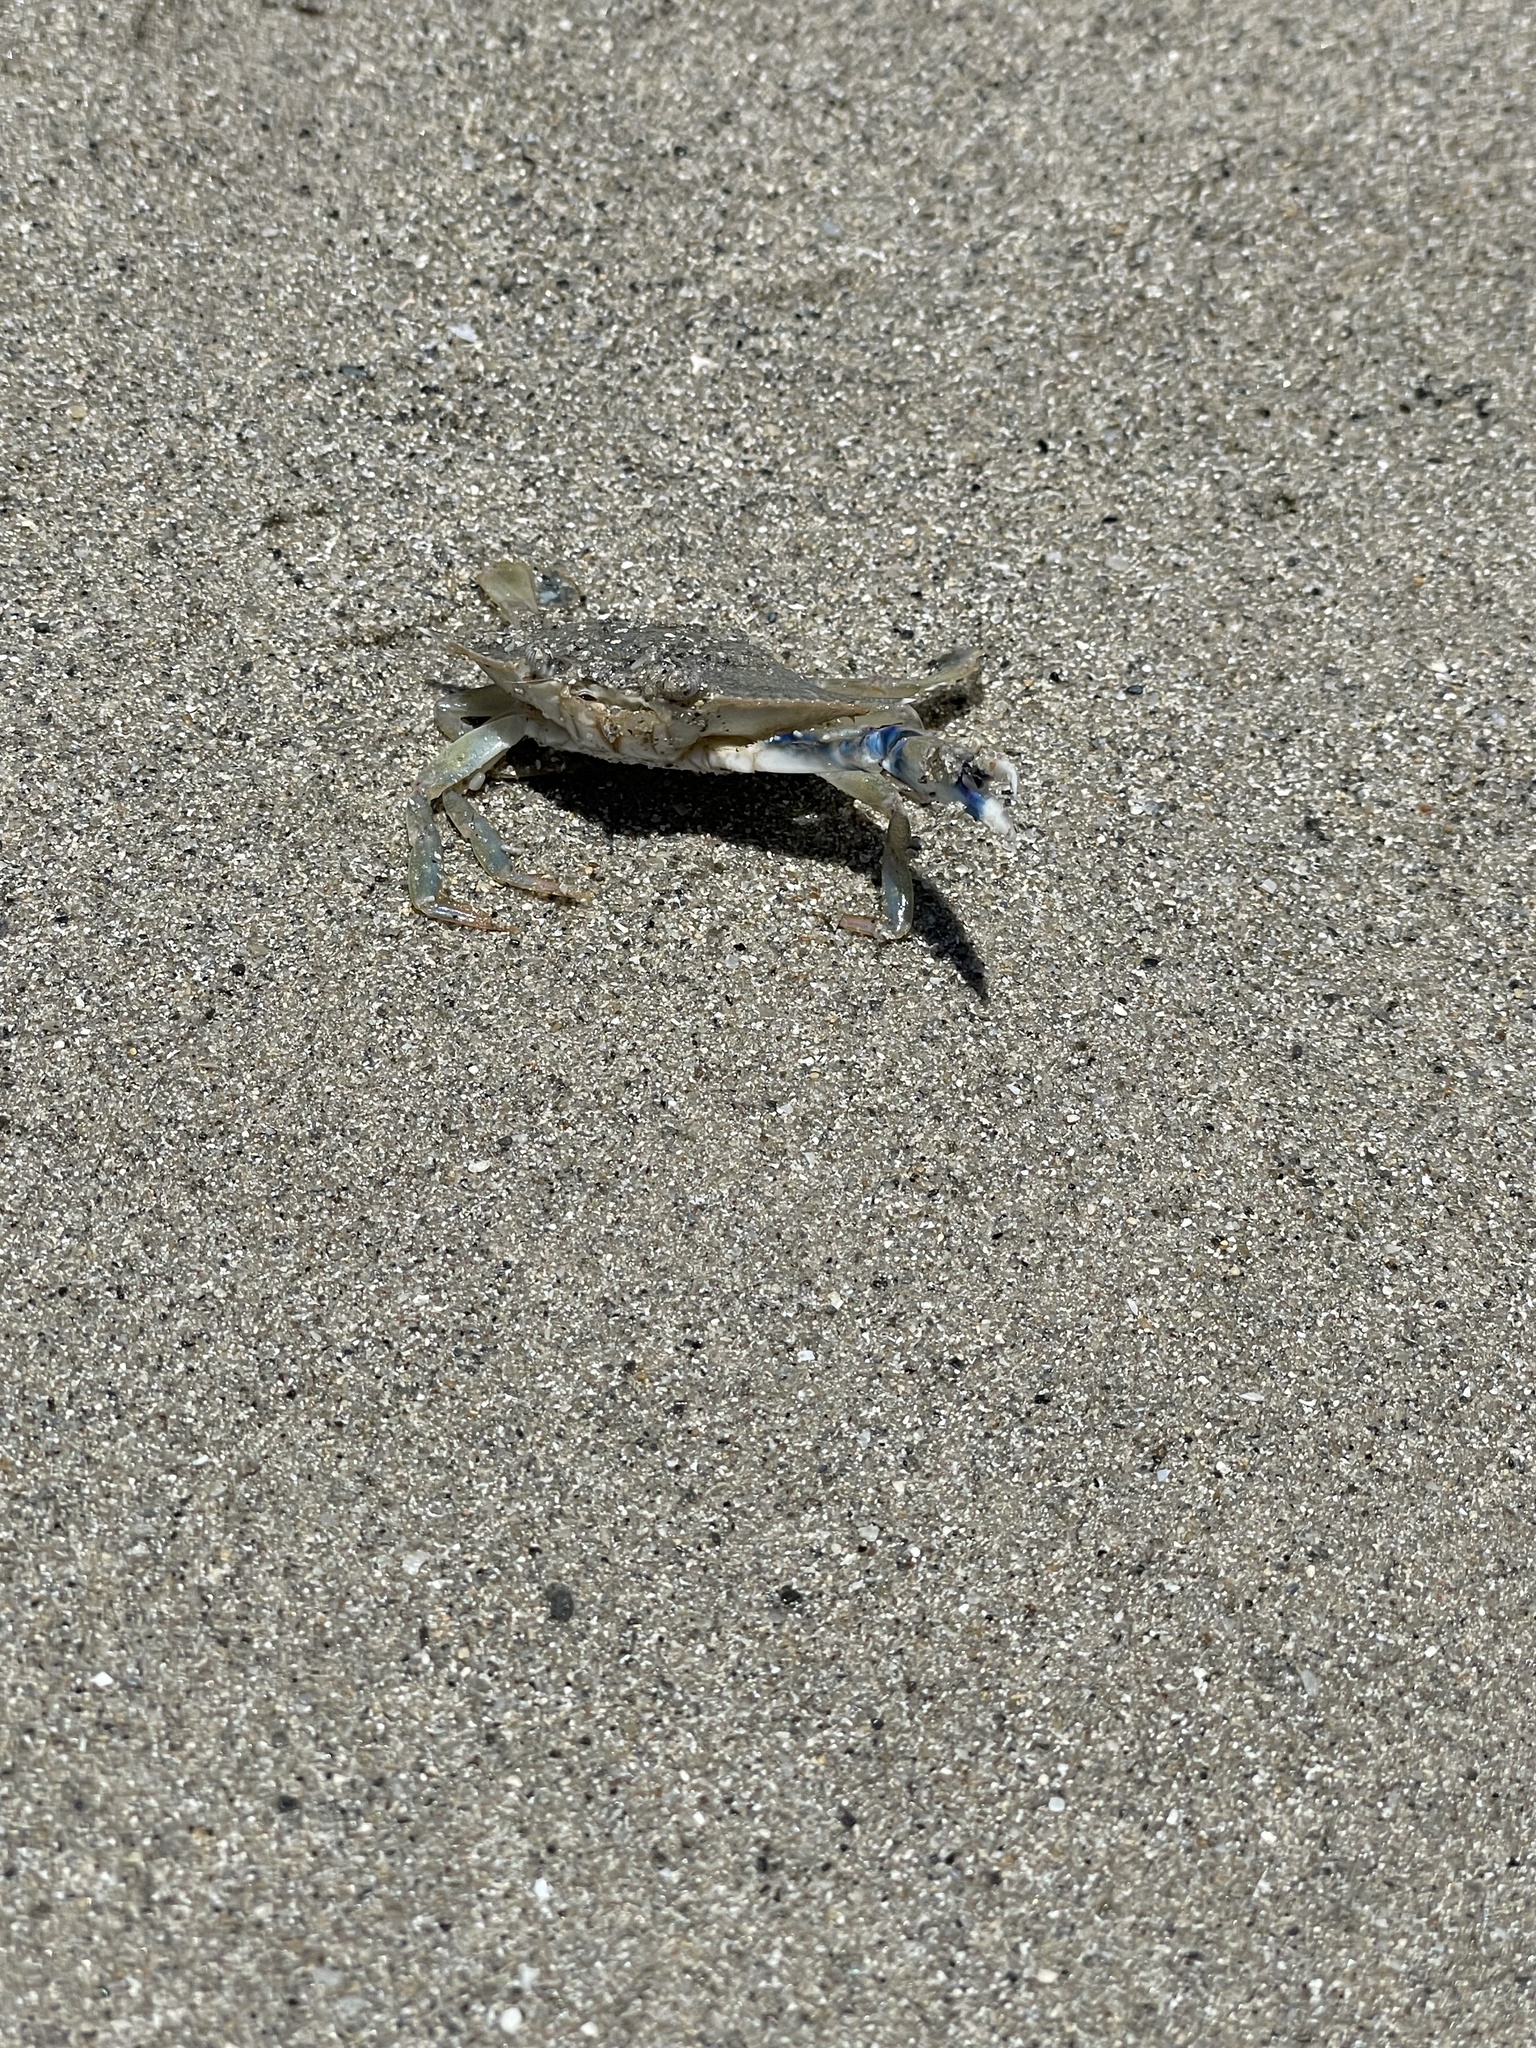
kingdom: Animalia
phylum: Arthropoda
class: Malacostraca
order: Decapoda
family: Portunidae
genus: Callinectes
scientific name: Callinectes similis
